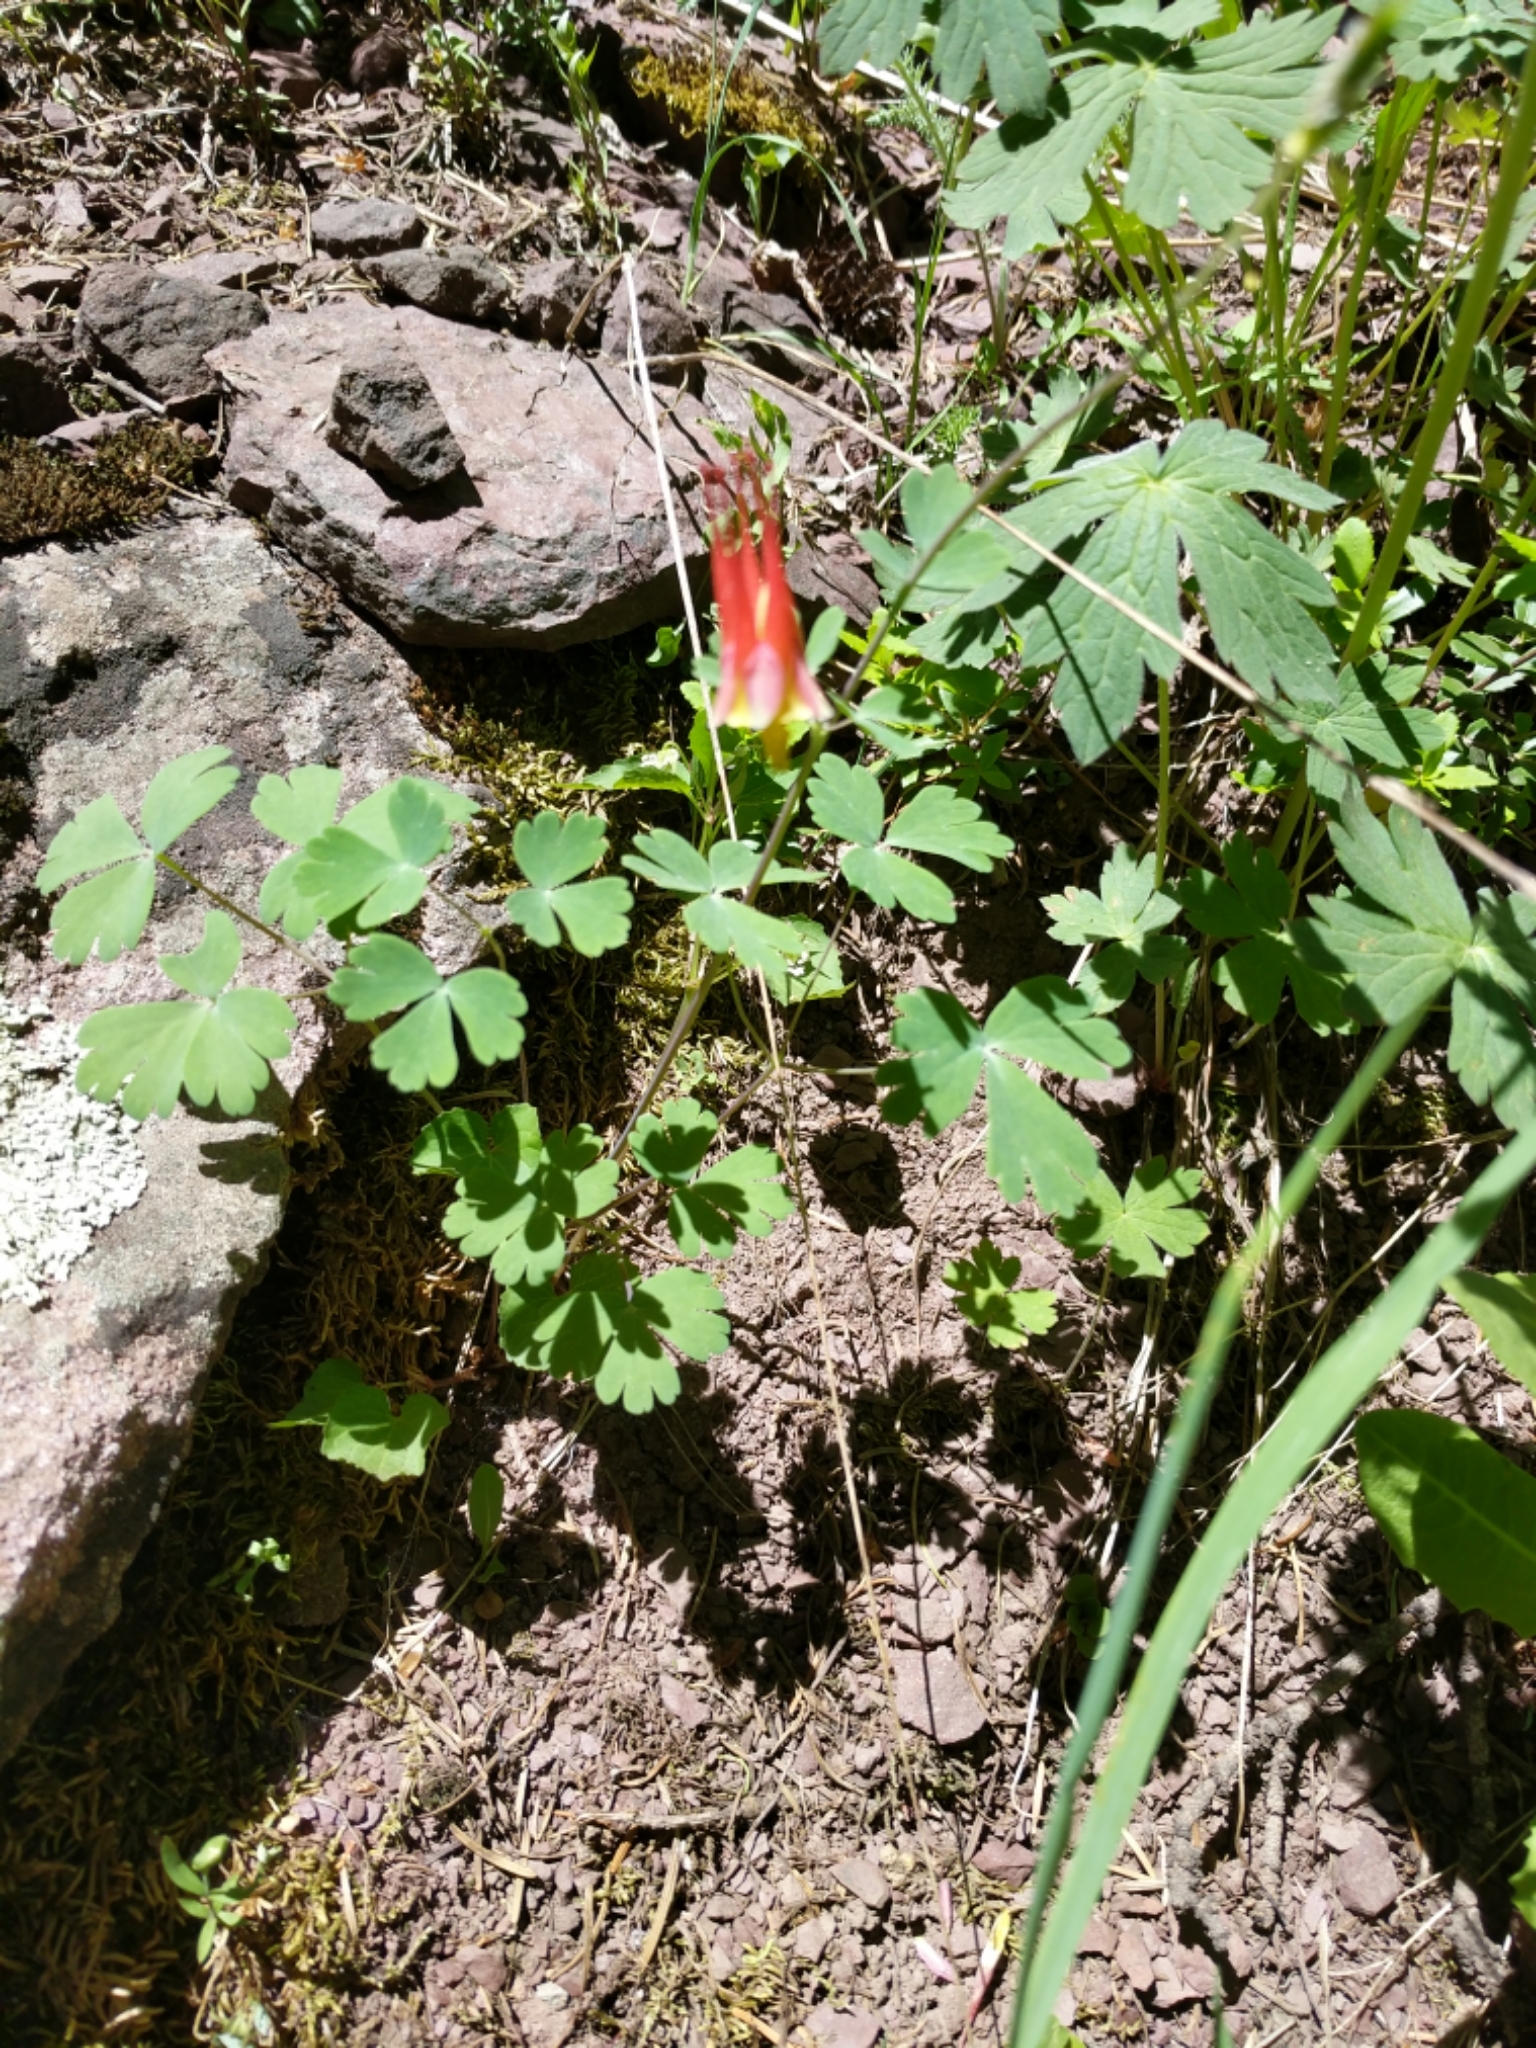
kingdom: Plantae
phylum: Tracheophyta
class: Magnoliopsida
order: Ranunculales
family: Ranunculaceae
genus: Aquilegia
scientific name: Aquilegia elegantula
